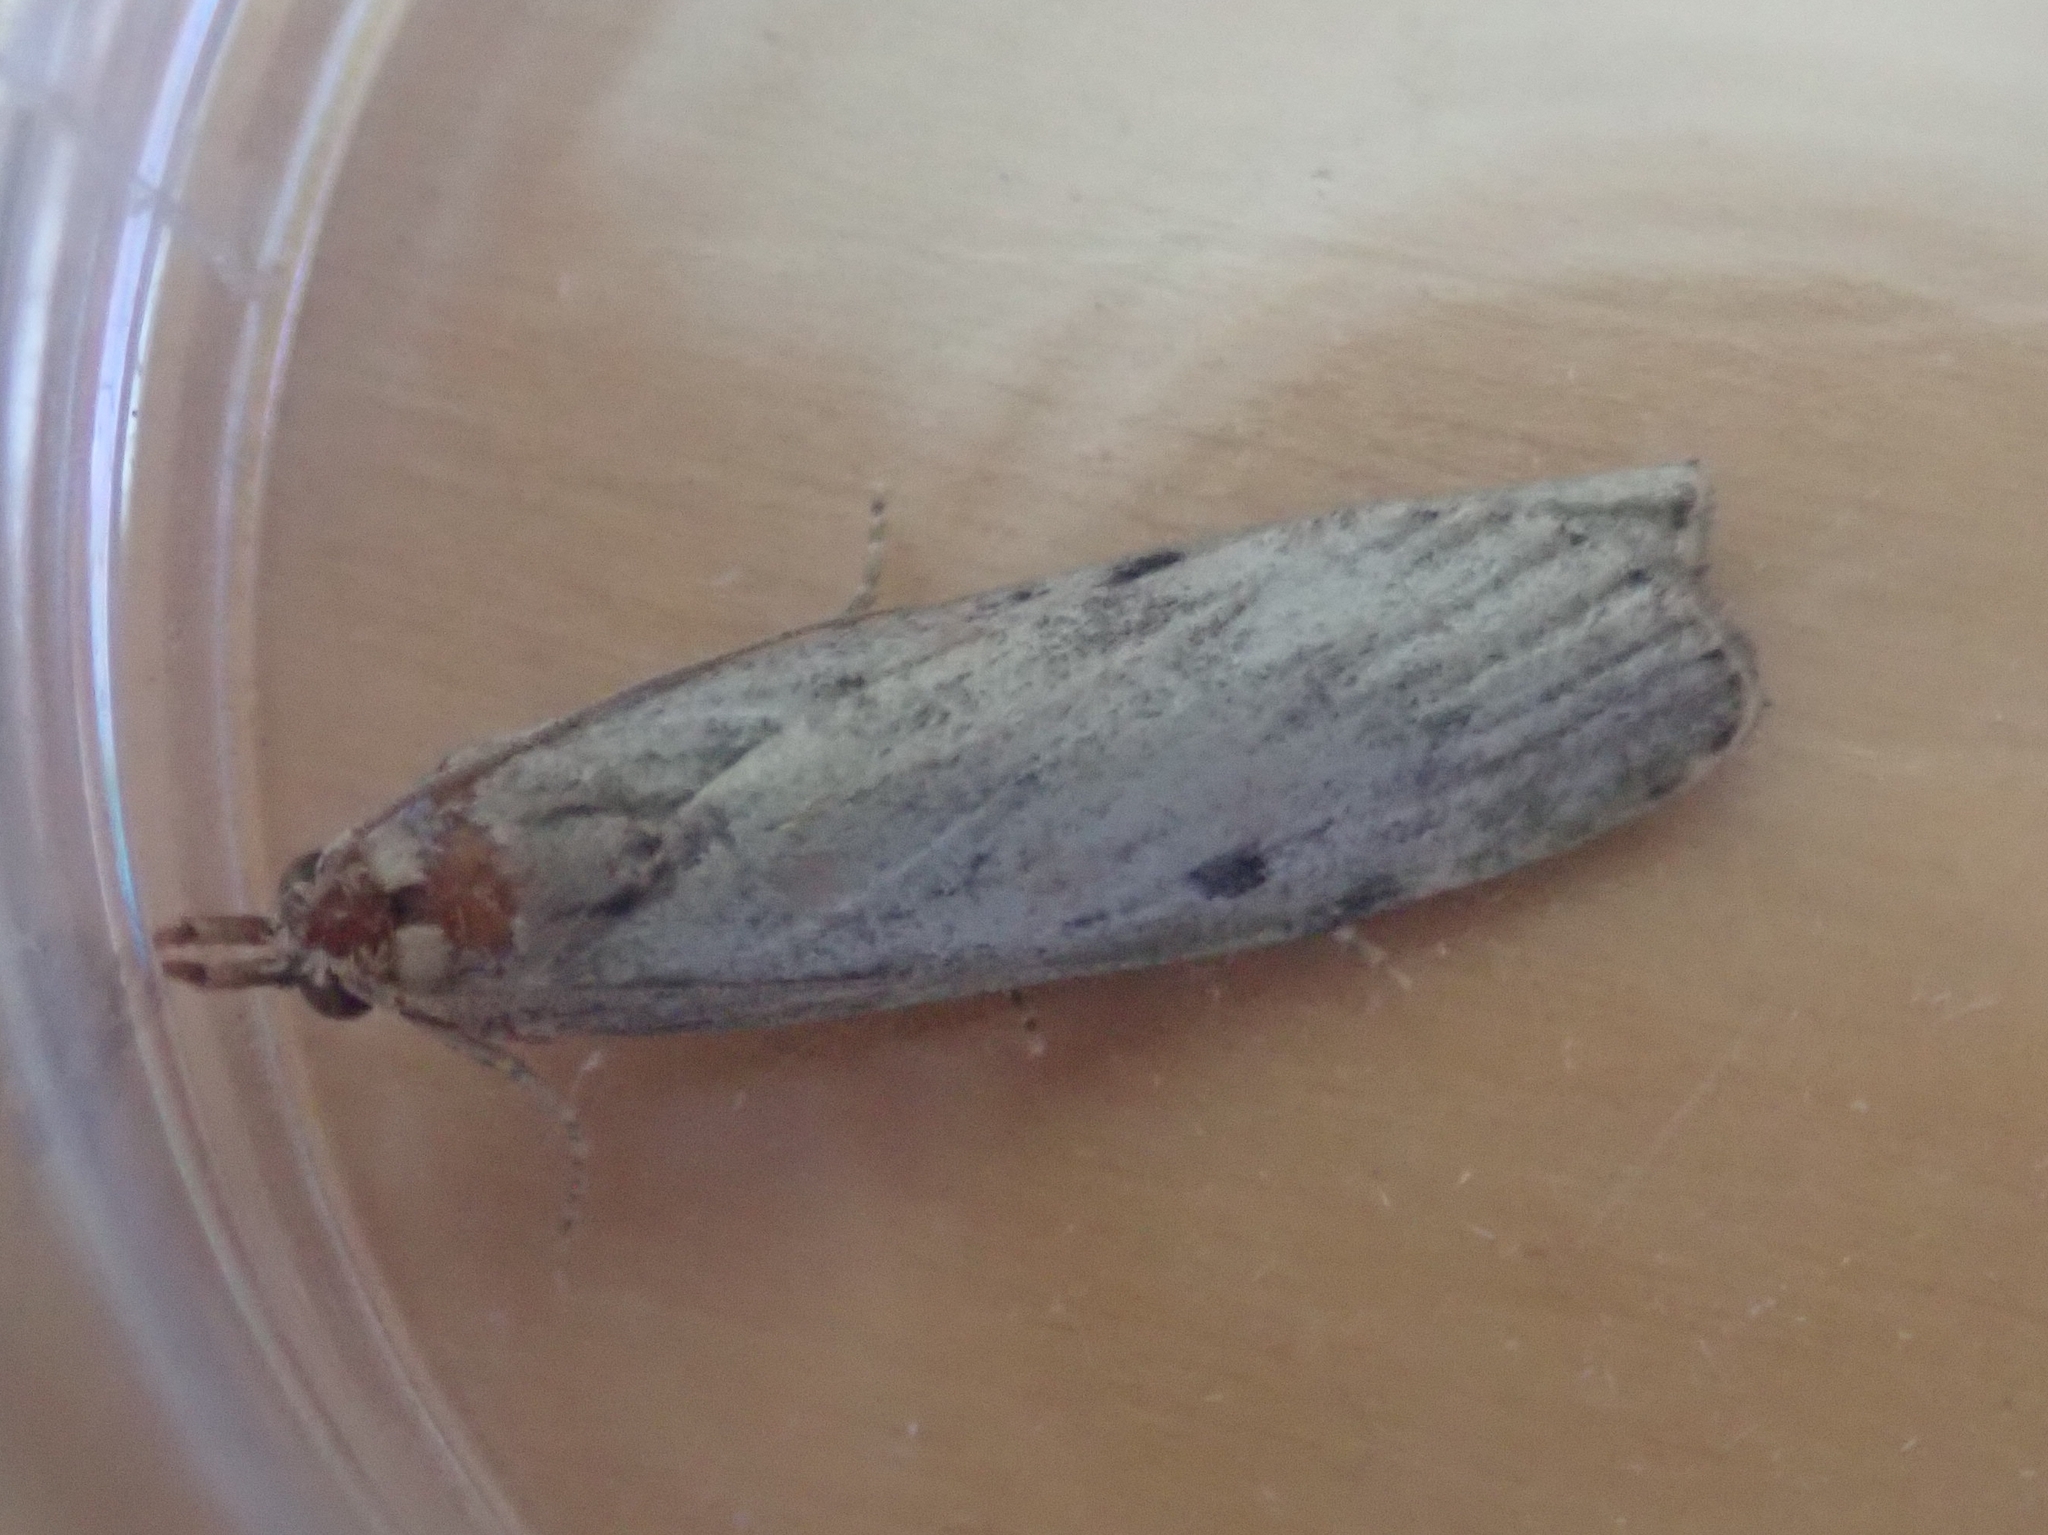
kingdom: Animalia
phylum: Arthropoda
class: Insecta
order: Lepidoptera
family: Pyralidae
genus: Aphomia
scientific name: Aphomia sociella
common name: Bee moth
